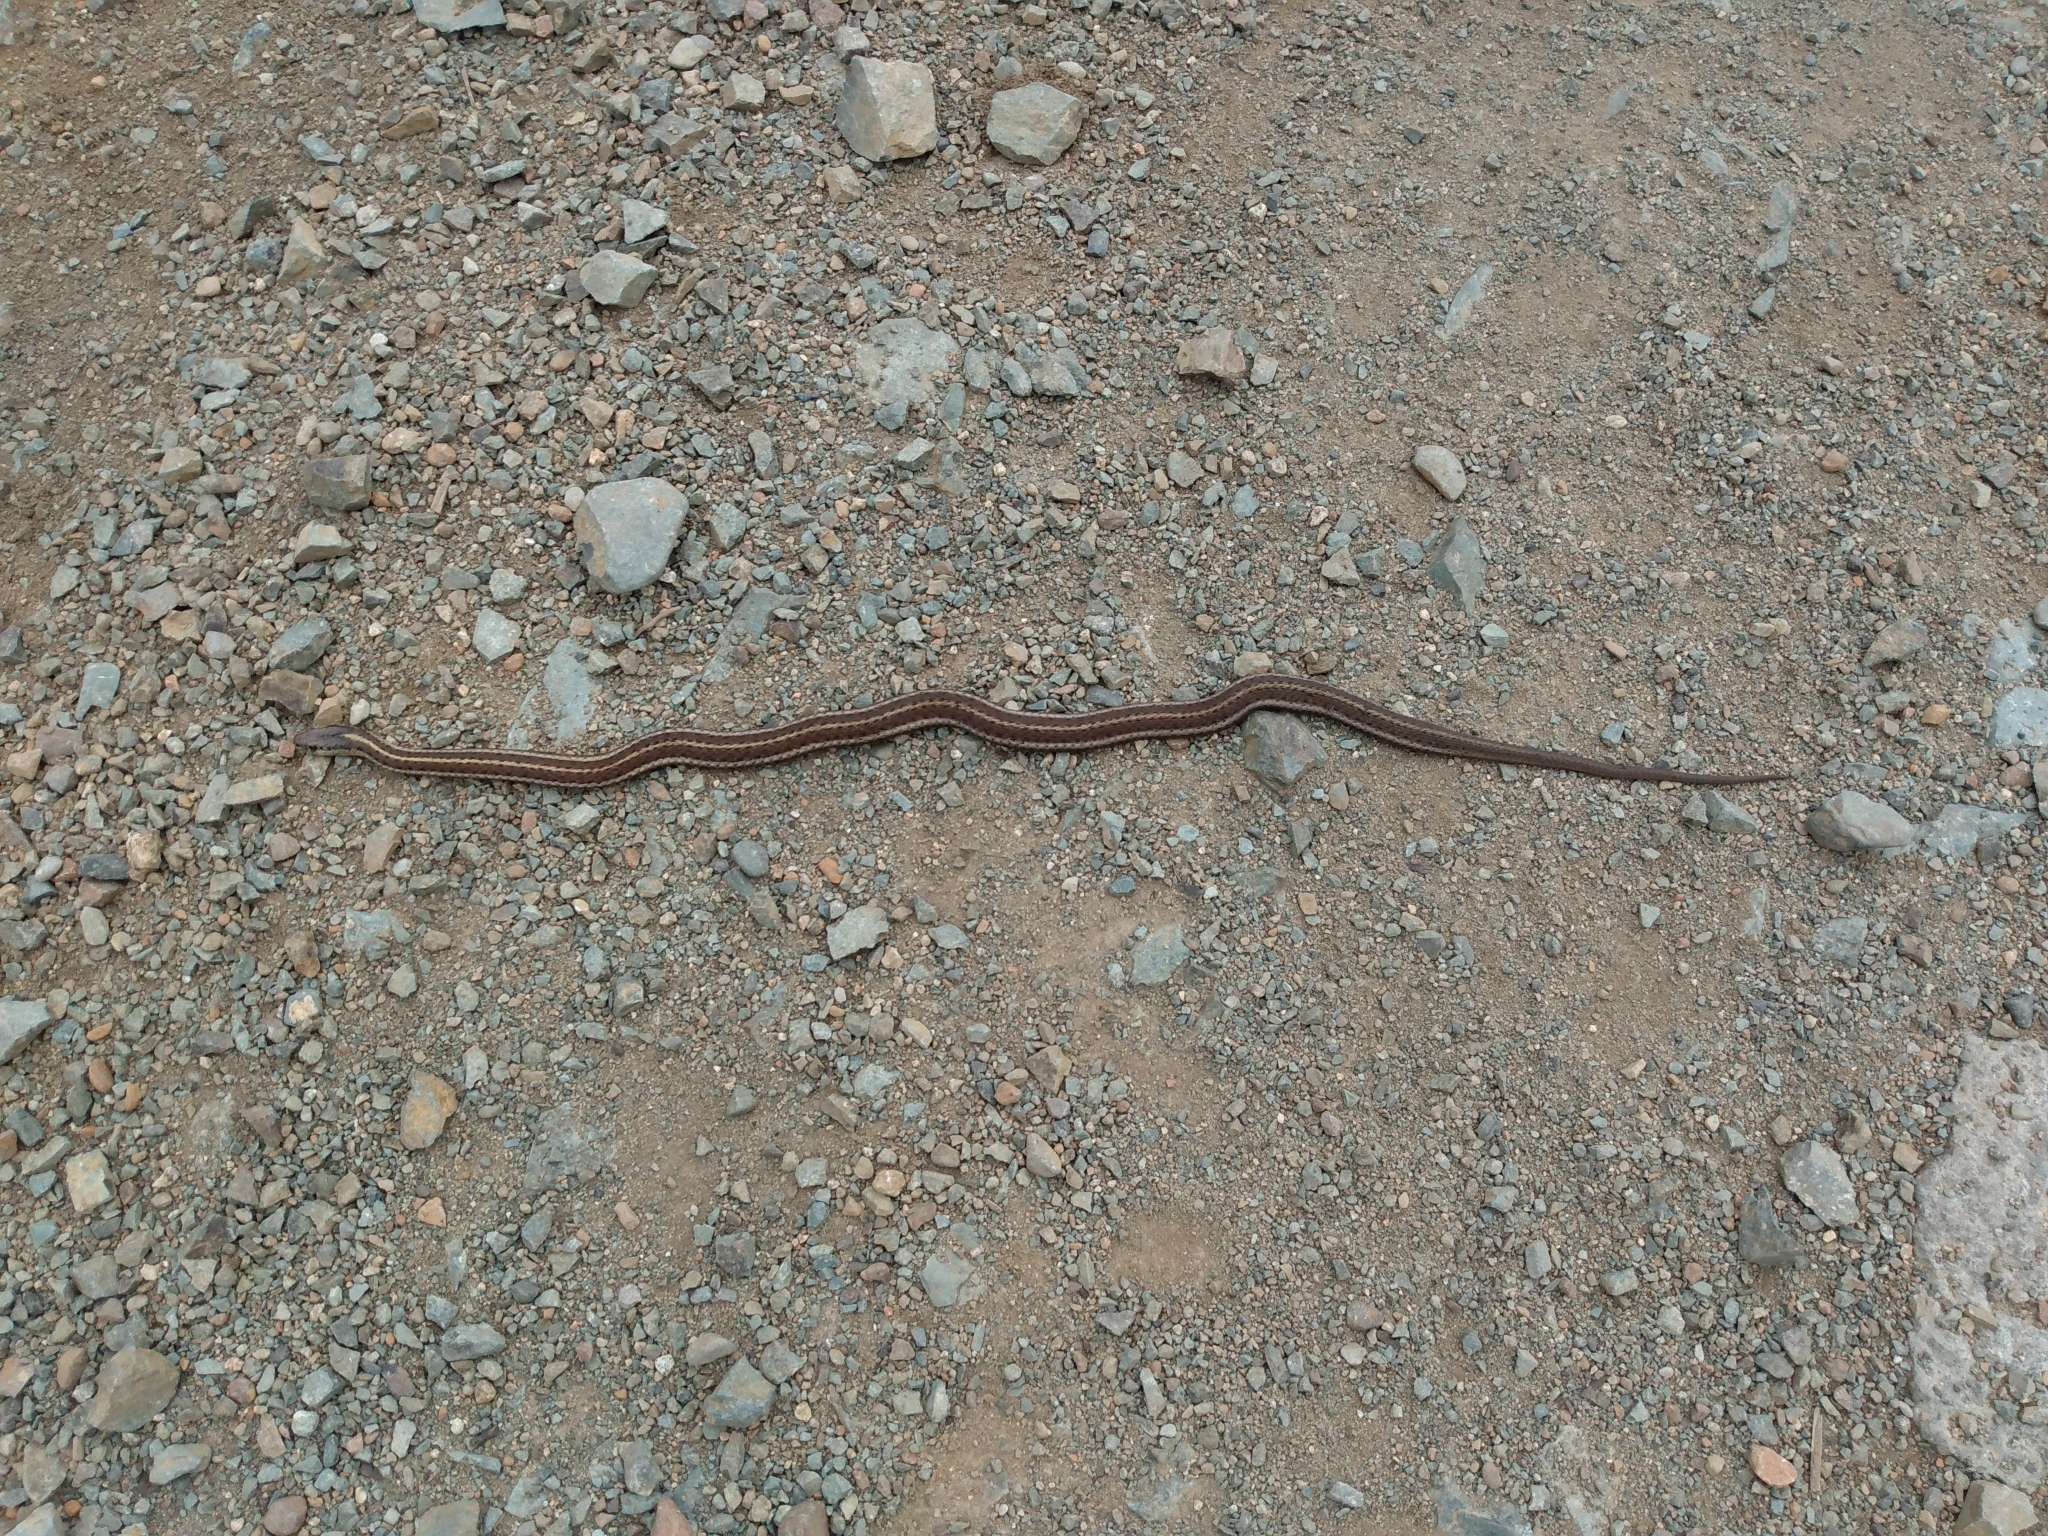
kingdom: Animalia
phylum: Chordata
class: Squamata
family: Colubridae
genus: Thamnophis
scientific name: Thamnophis ordinoides
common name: Northwestern garter snake
